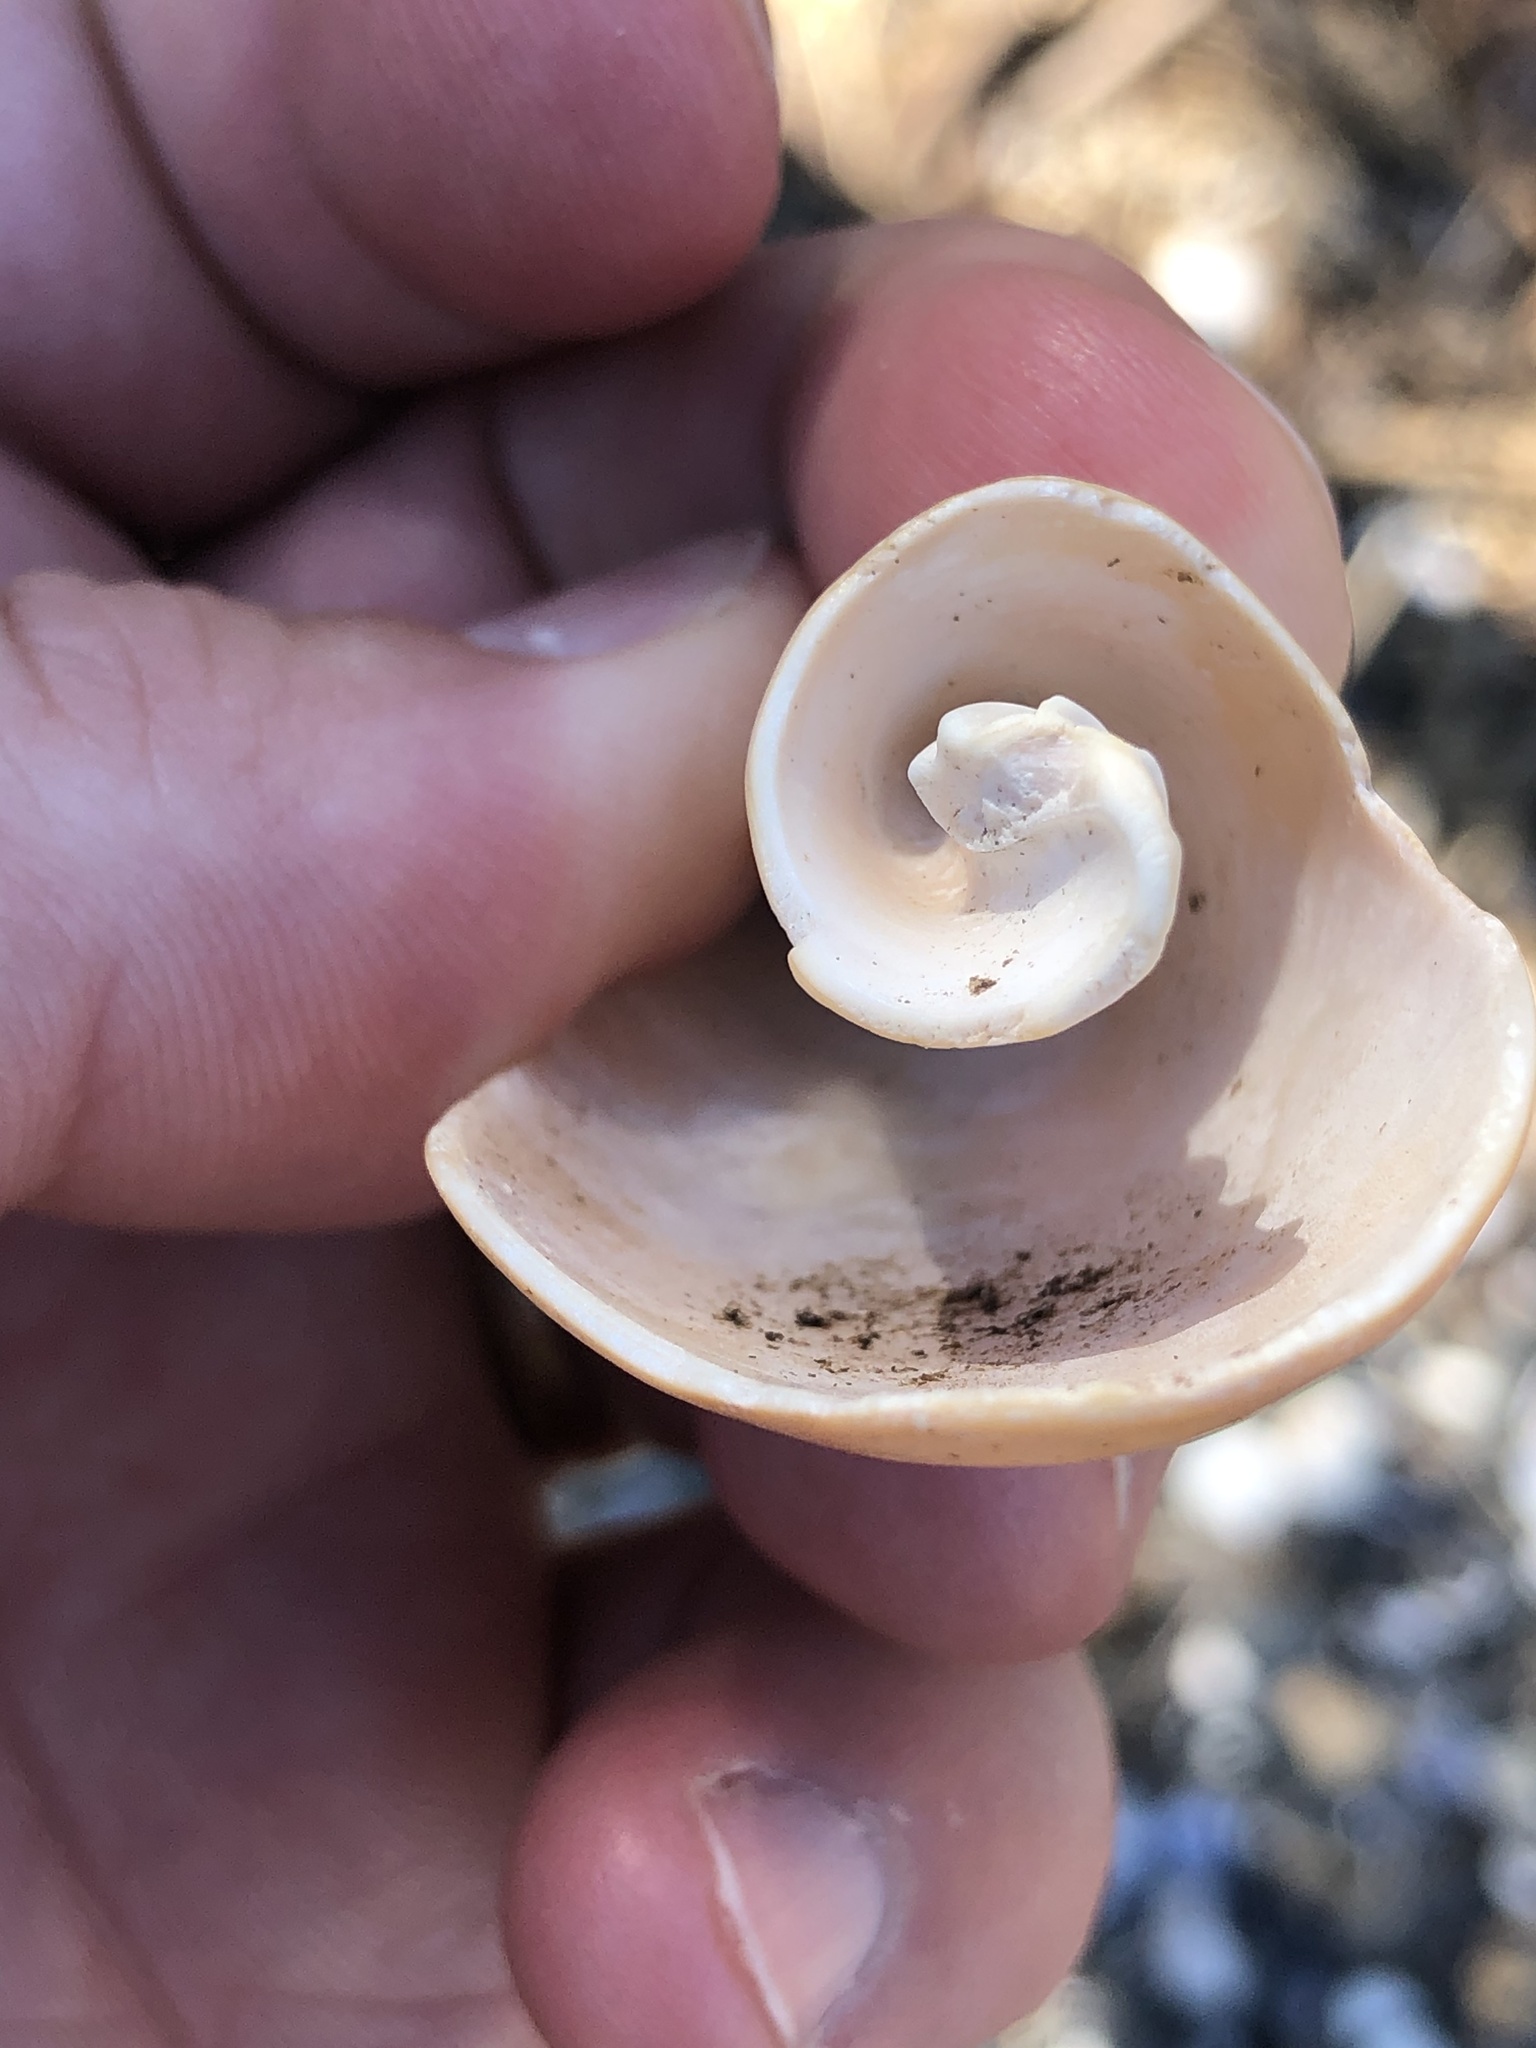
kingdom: Animalia
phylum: Mollusca
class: Gastropoda
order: Neogastropoda
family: Volutidae
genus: Alcithoe
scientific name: Alcithoe arabica
